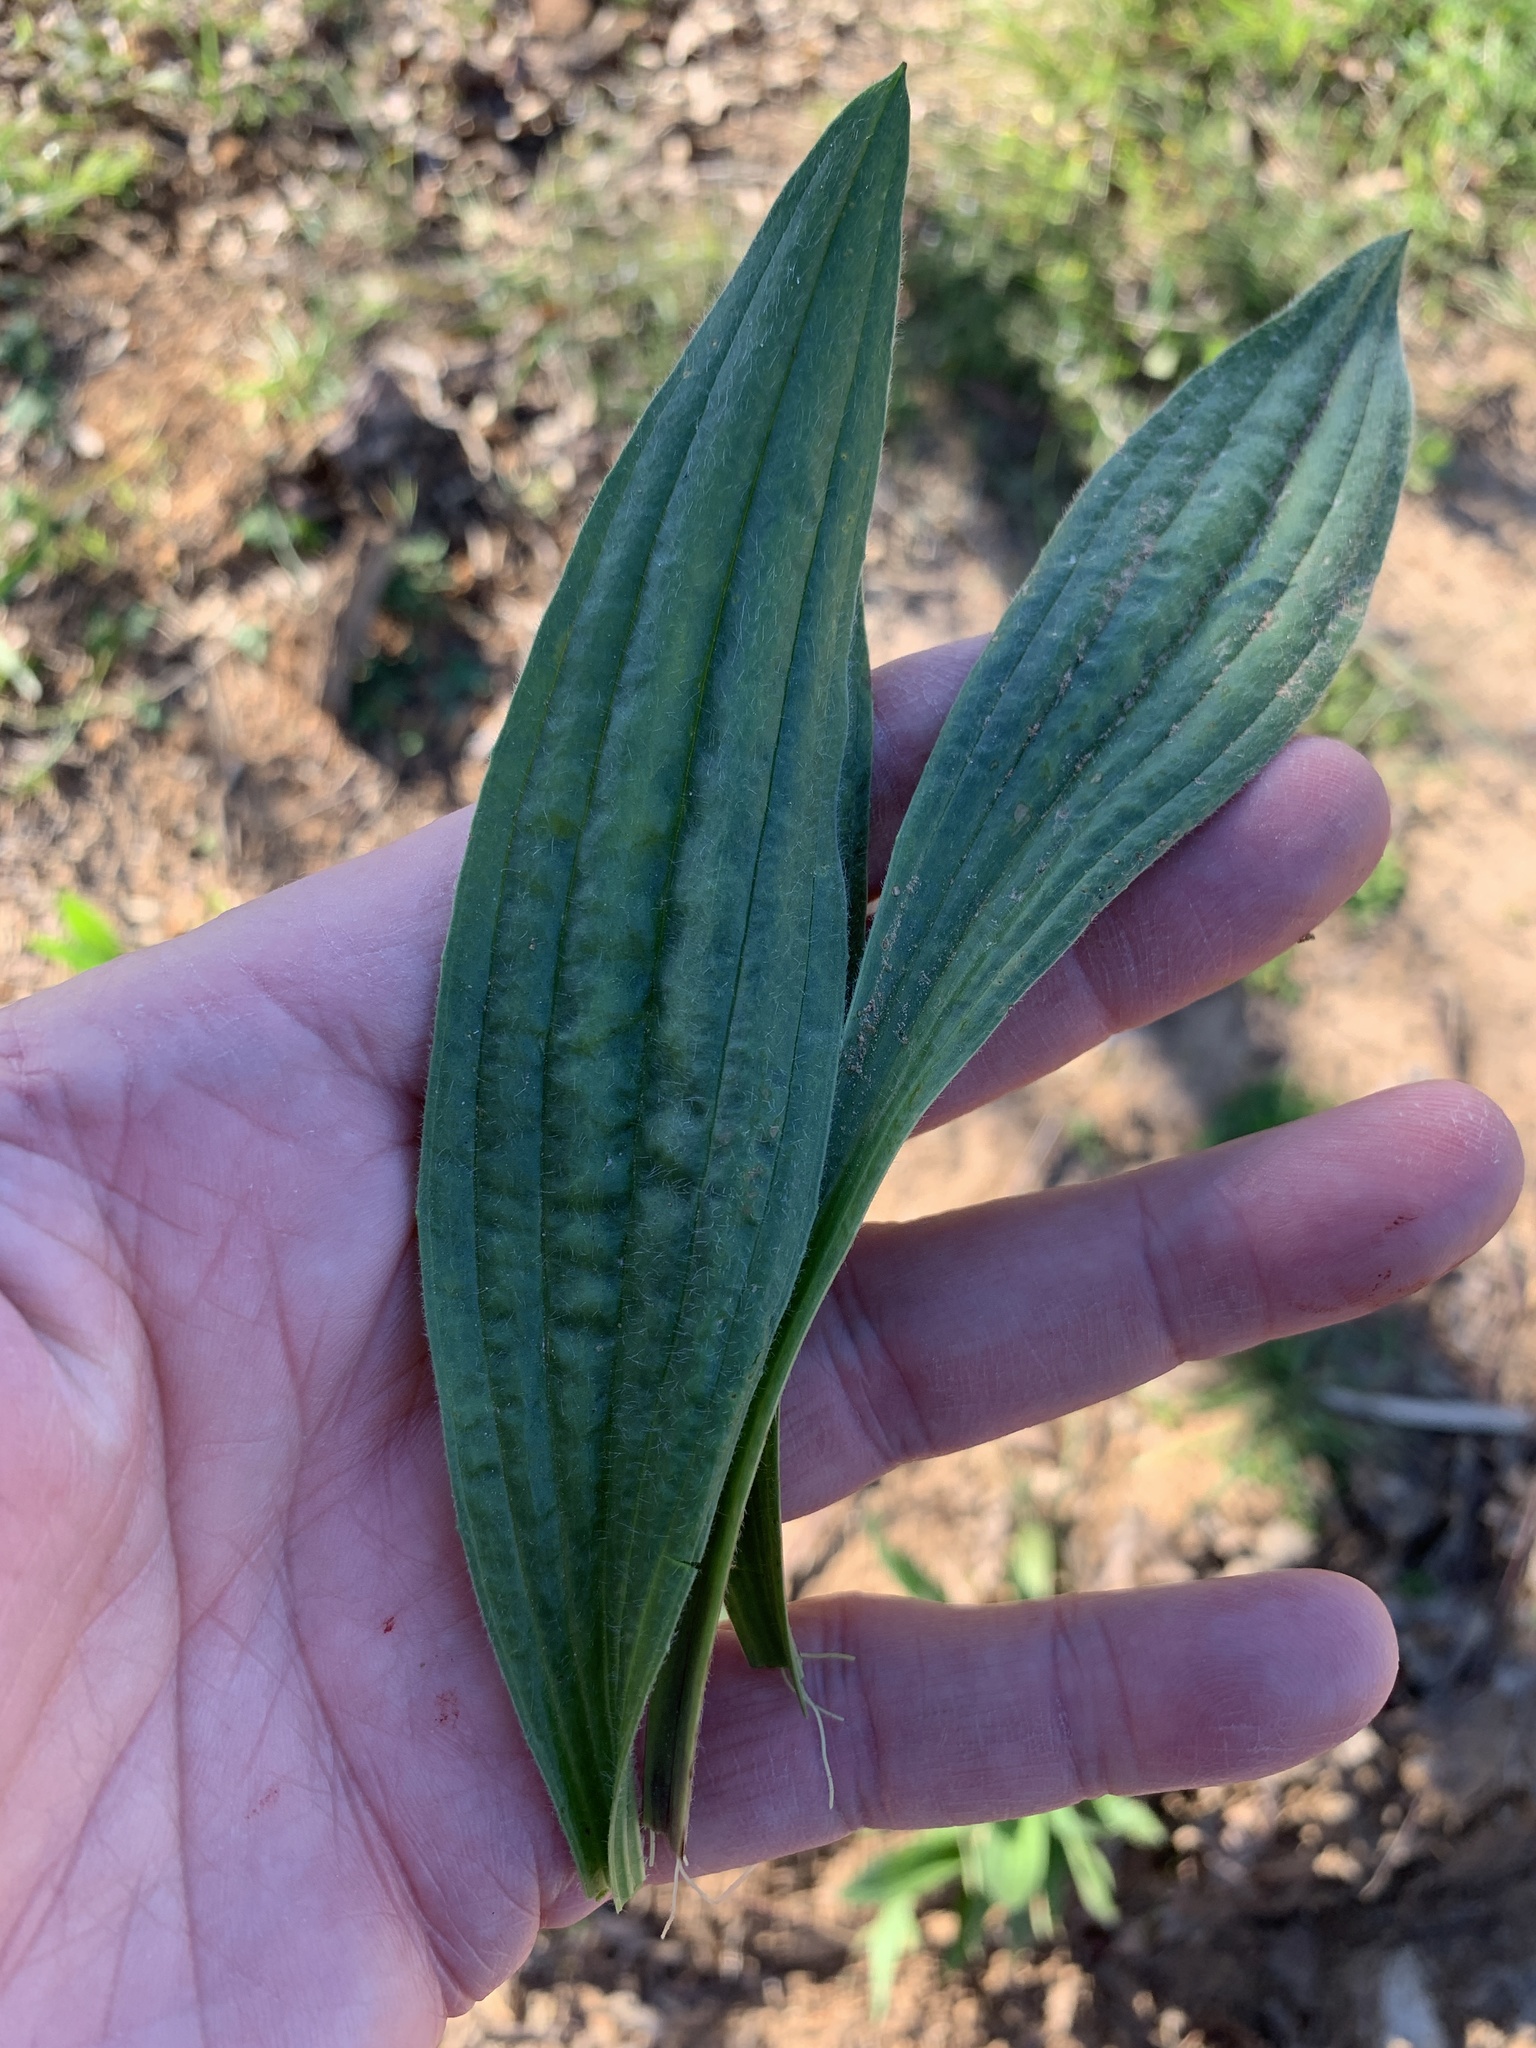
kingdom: Plantae
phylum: Tracheophyta
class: Magnoliopsida
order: Lamiales
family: Plantaginaceae
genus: Plantago
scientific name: Plantago lanceolata
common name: Ribwort plantain
